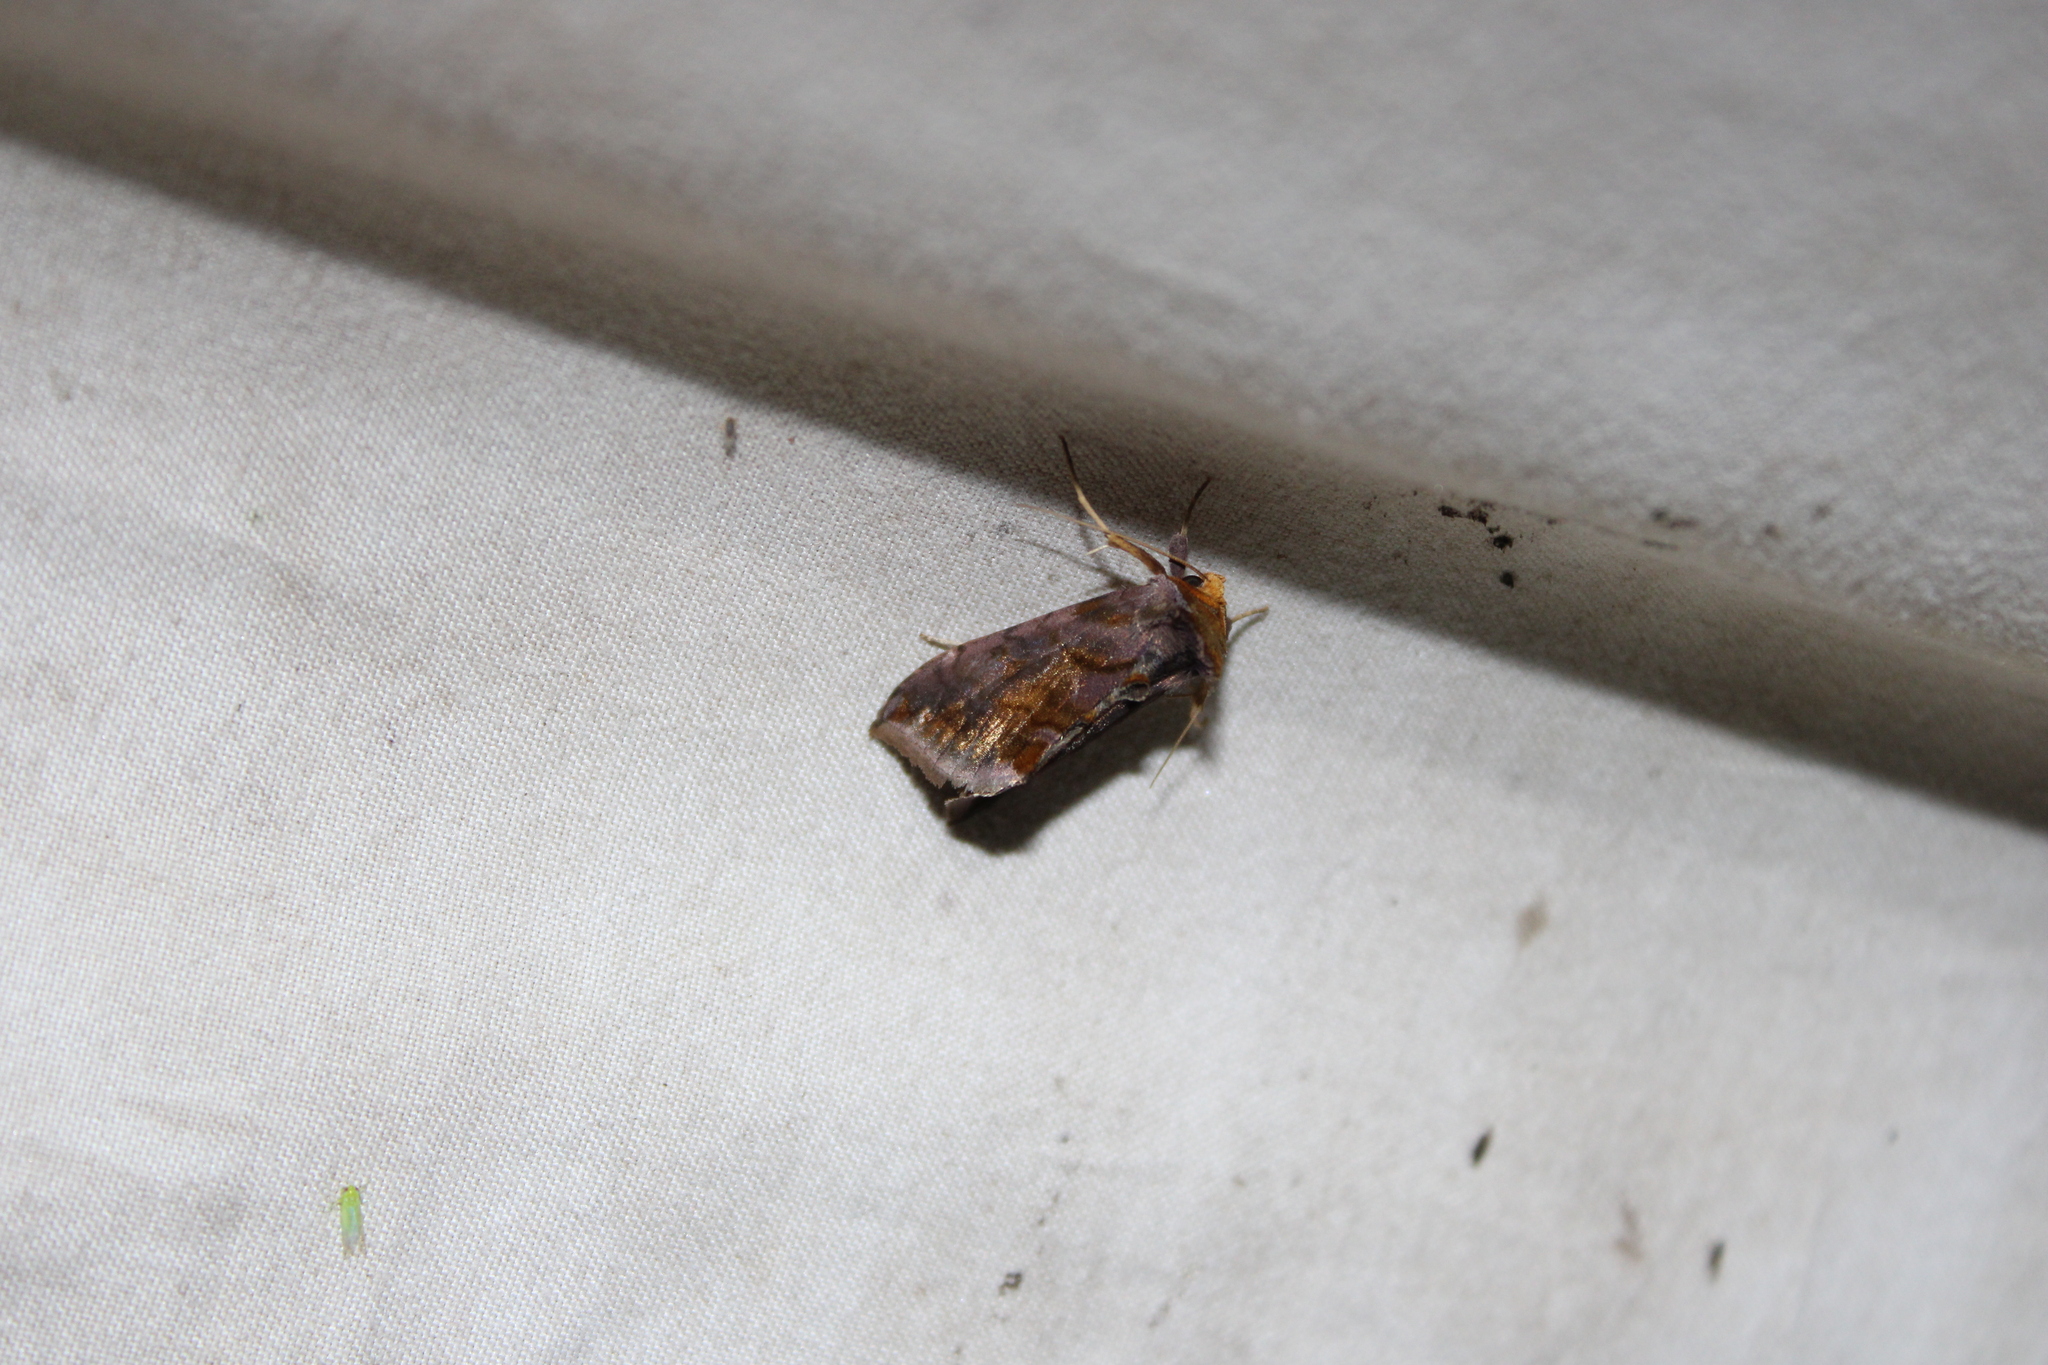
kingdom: Animalia
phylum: Arthropoda
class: Insecta
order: Lepidoptera
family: Noctuidae
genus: Allagrapha
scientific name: Allagrapha aerea
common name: Unspotted looper moth
